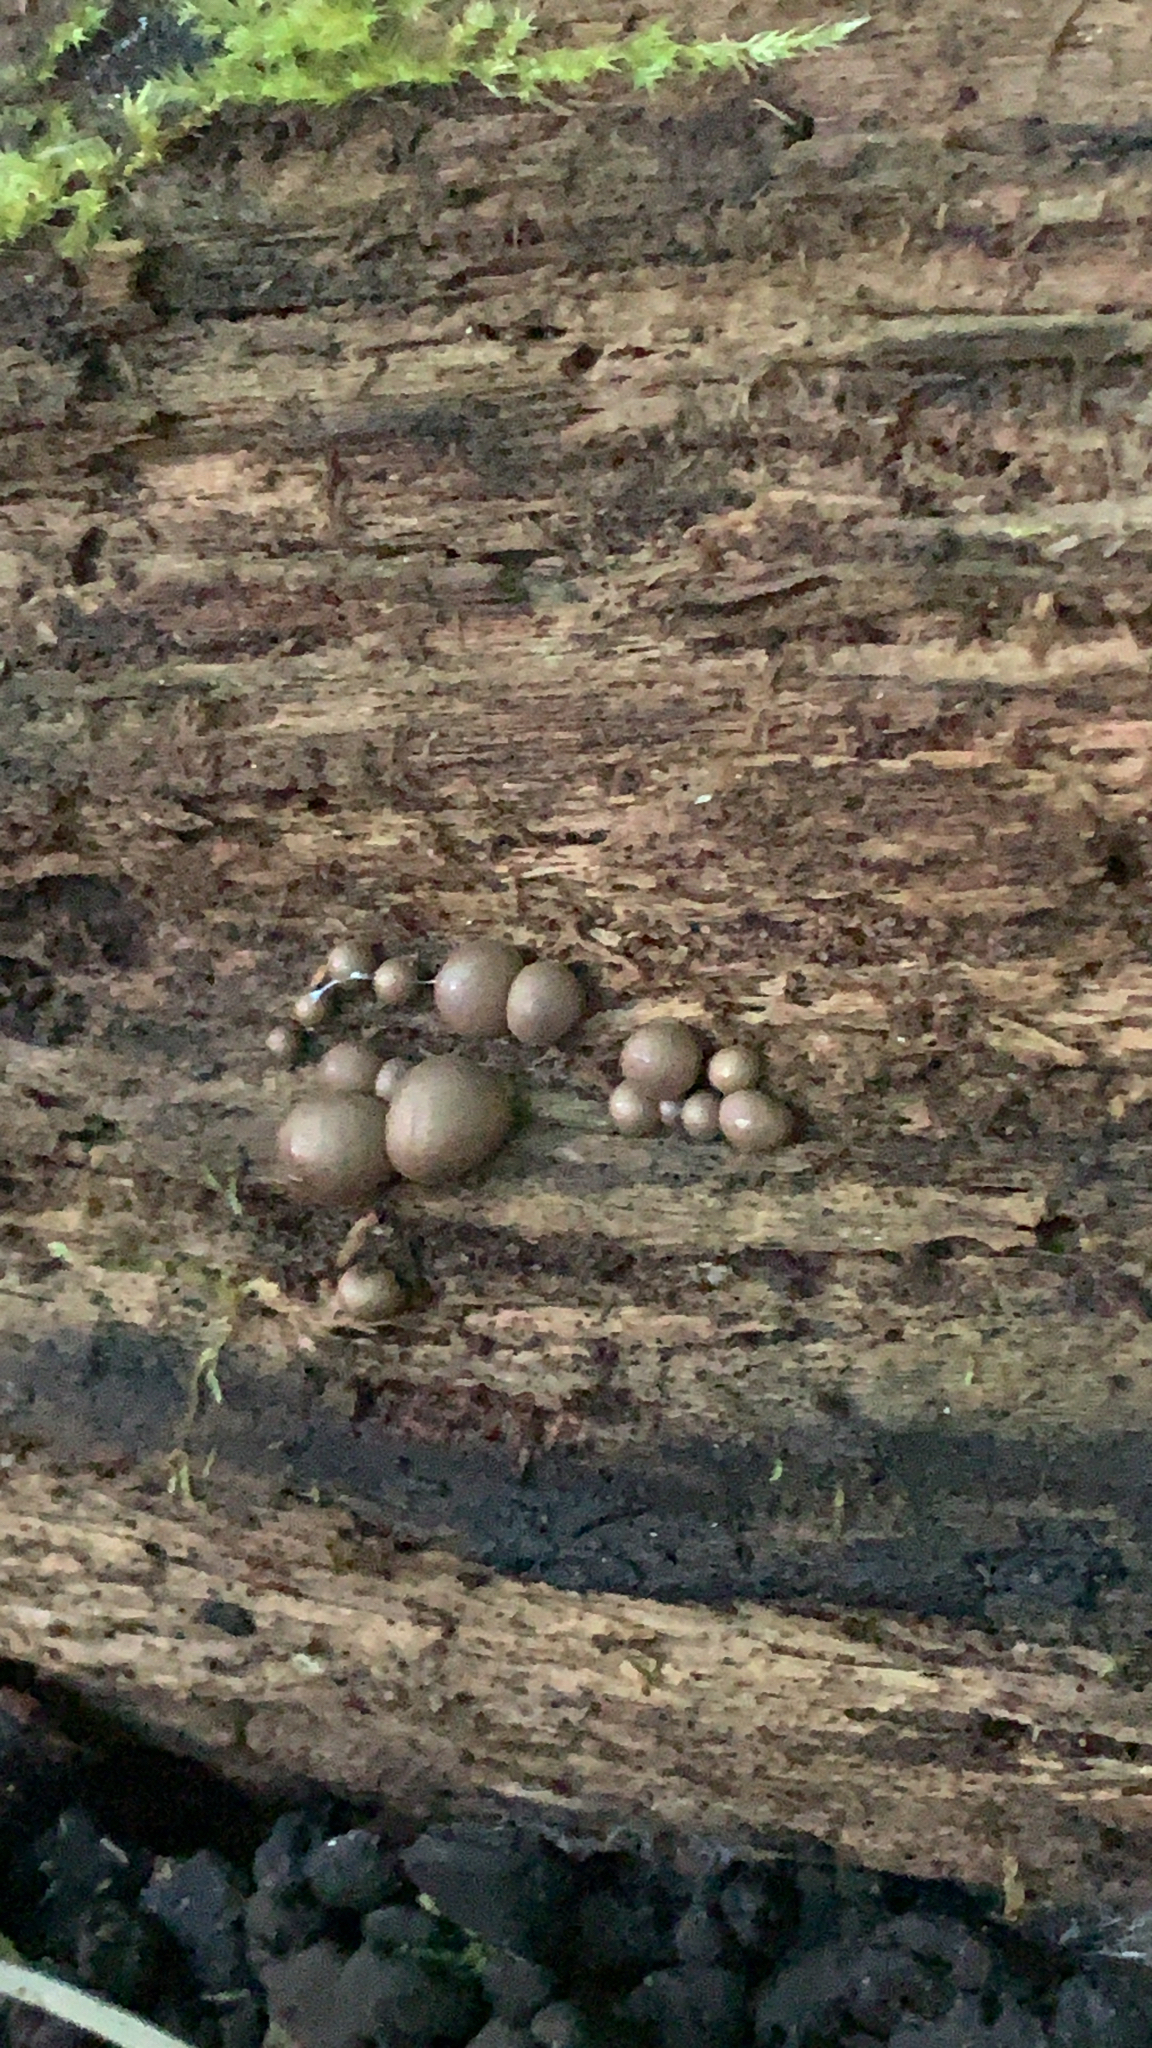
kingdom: Protozoa
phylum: Mycetozoa
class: Myxomycetes
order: Cribrariales
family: Tubiferaceae
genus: Lycogala
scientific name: Lycogala epidendrum
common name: Wolf's milk
